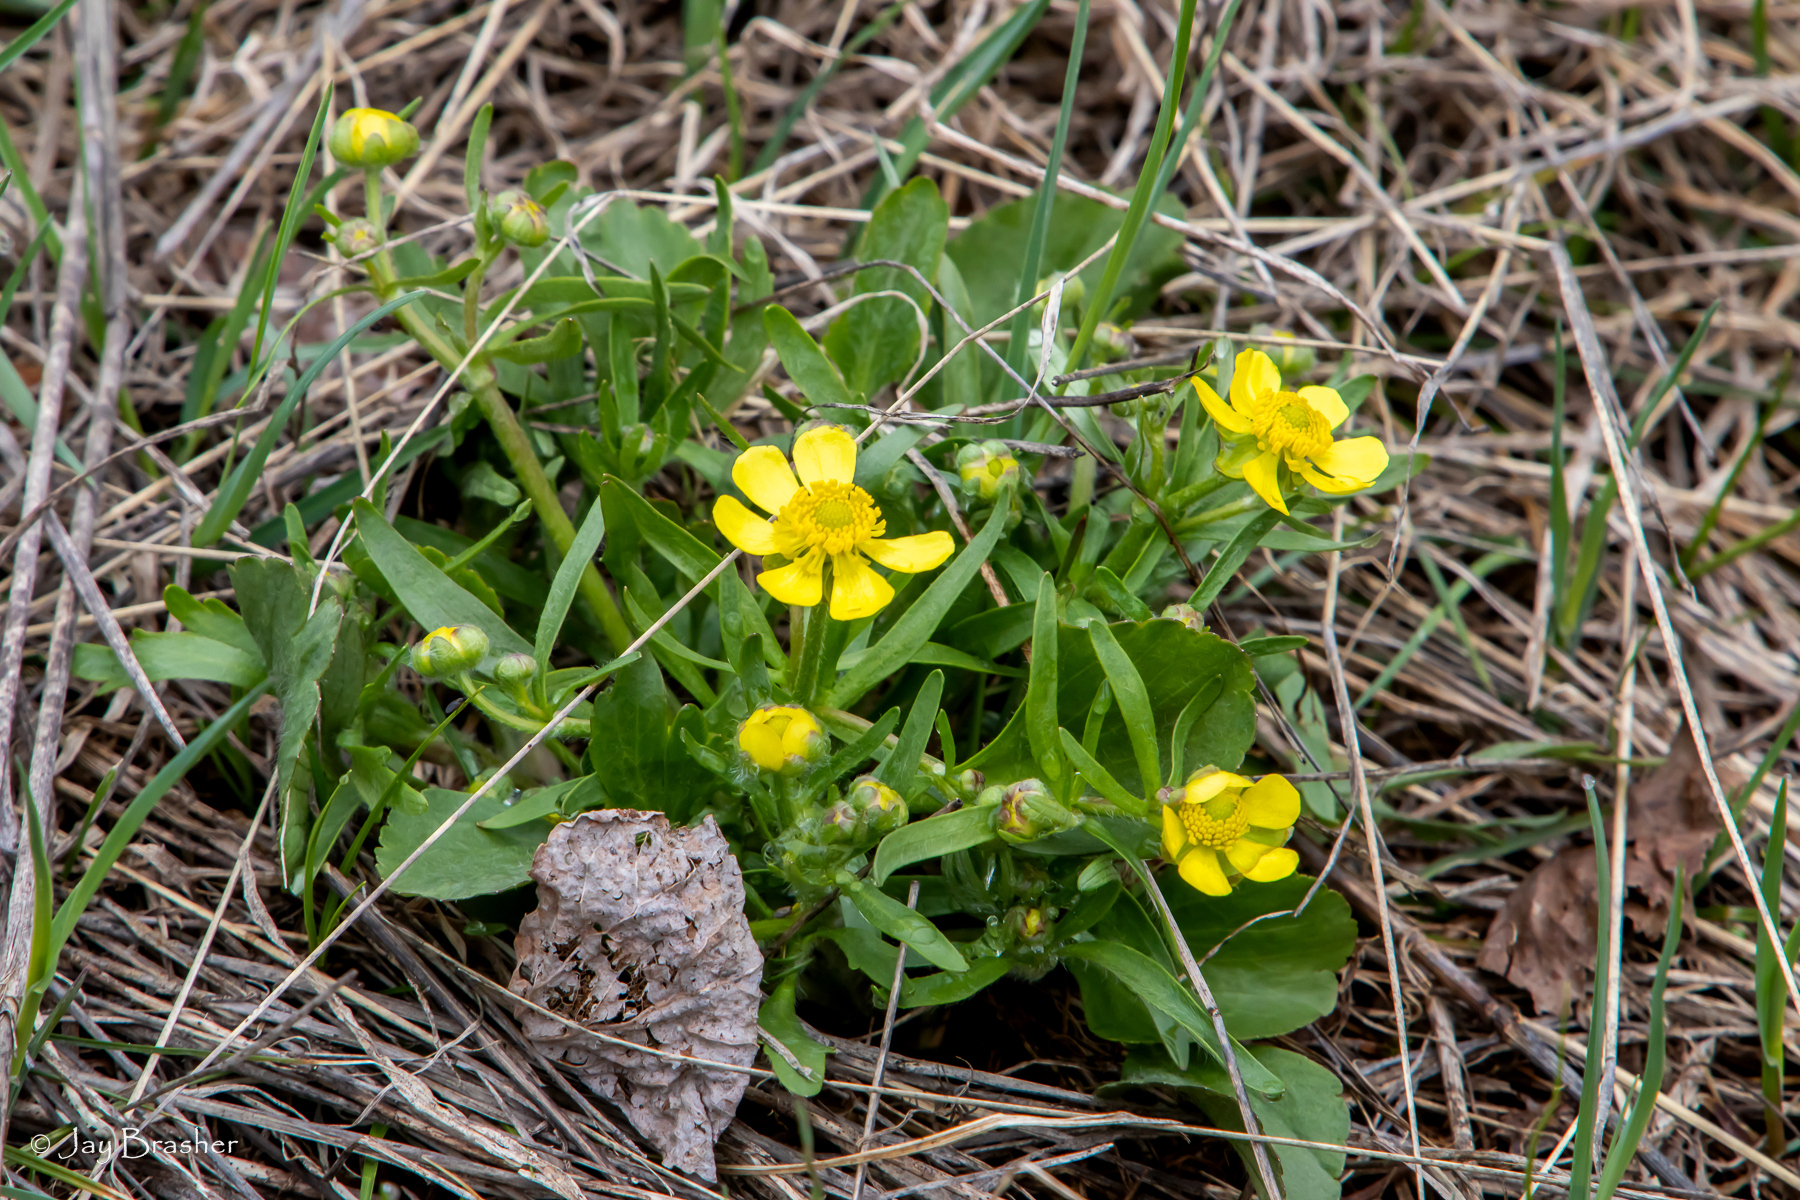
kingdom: Plantae
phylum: Tracheophyta
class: Magnoliopsida
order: Ranunculales
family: Ranunculaceae
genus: Ranunculus
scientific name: Ranunculus rhomboideus
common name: Prairie buttercup
